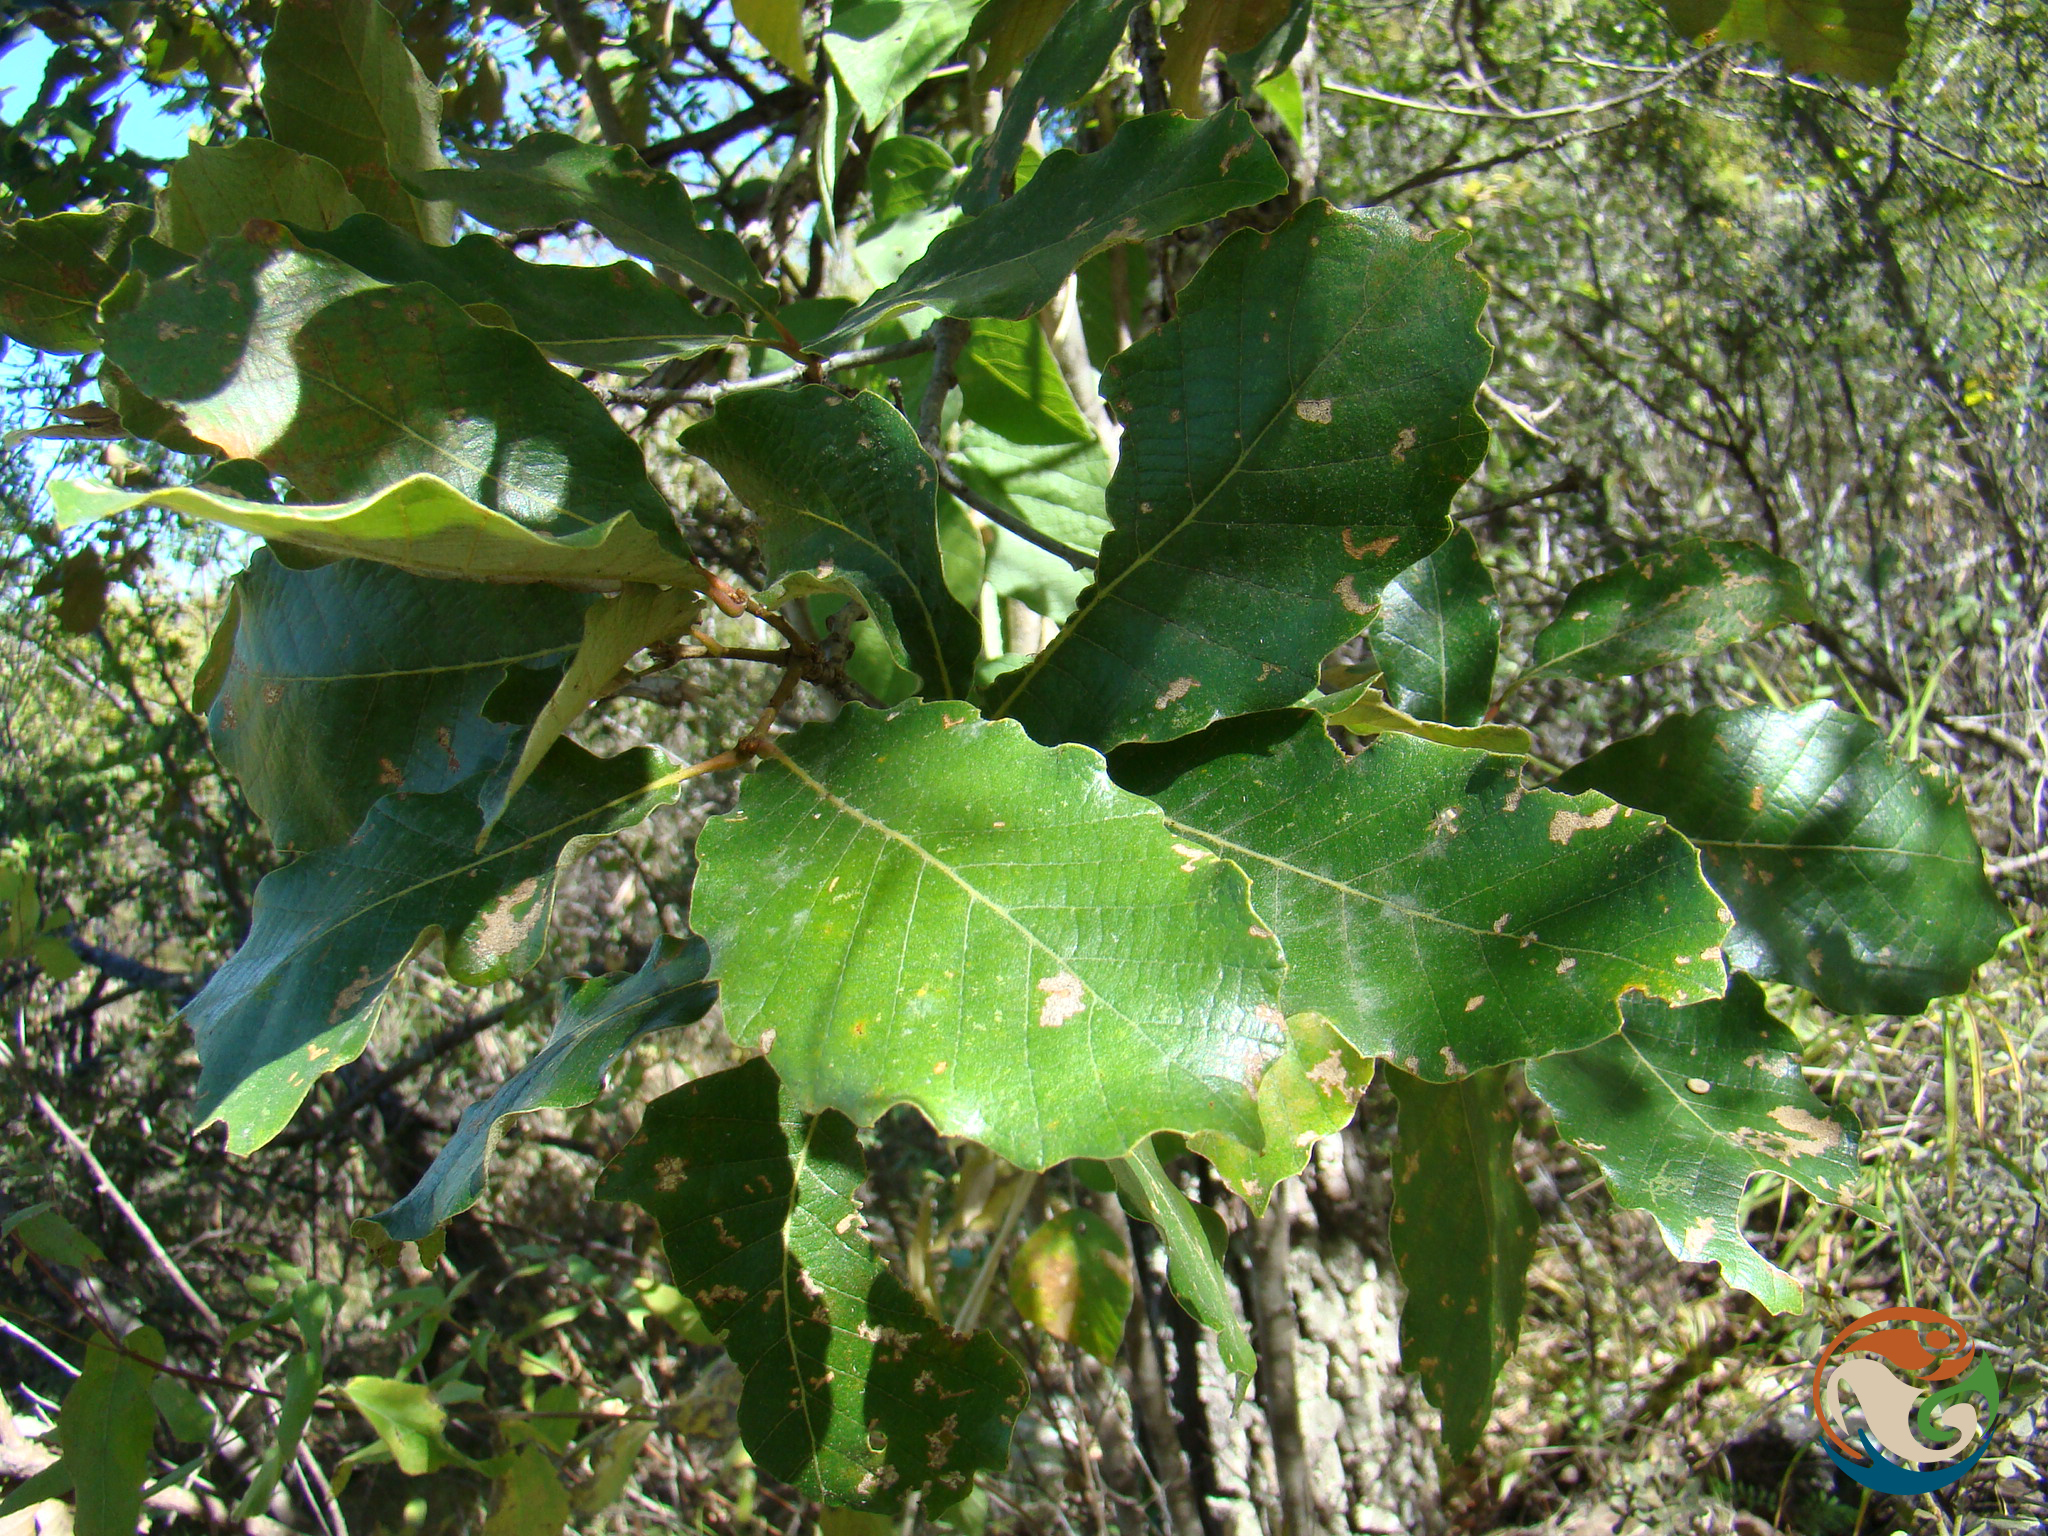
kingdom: Plantae
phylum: Tracheophyta
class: Magnoliopsida
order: Fagales
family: Fagaceae
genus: Quercus
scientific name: Quercus liebmannii
